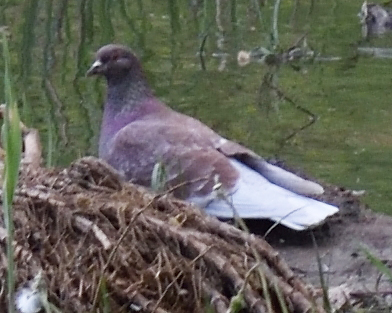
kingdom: Animalia
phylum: Chordata
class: Aves
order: Columbiformes
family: Columbidae
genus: Columba
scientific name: Columba livia
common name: Rock pigeon
